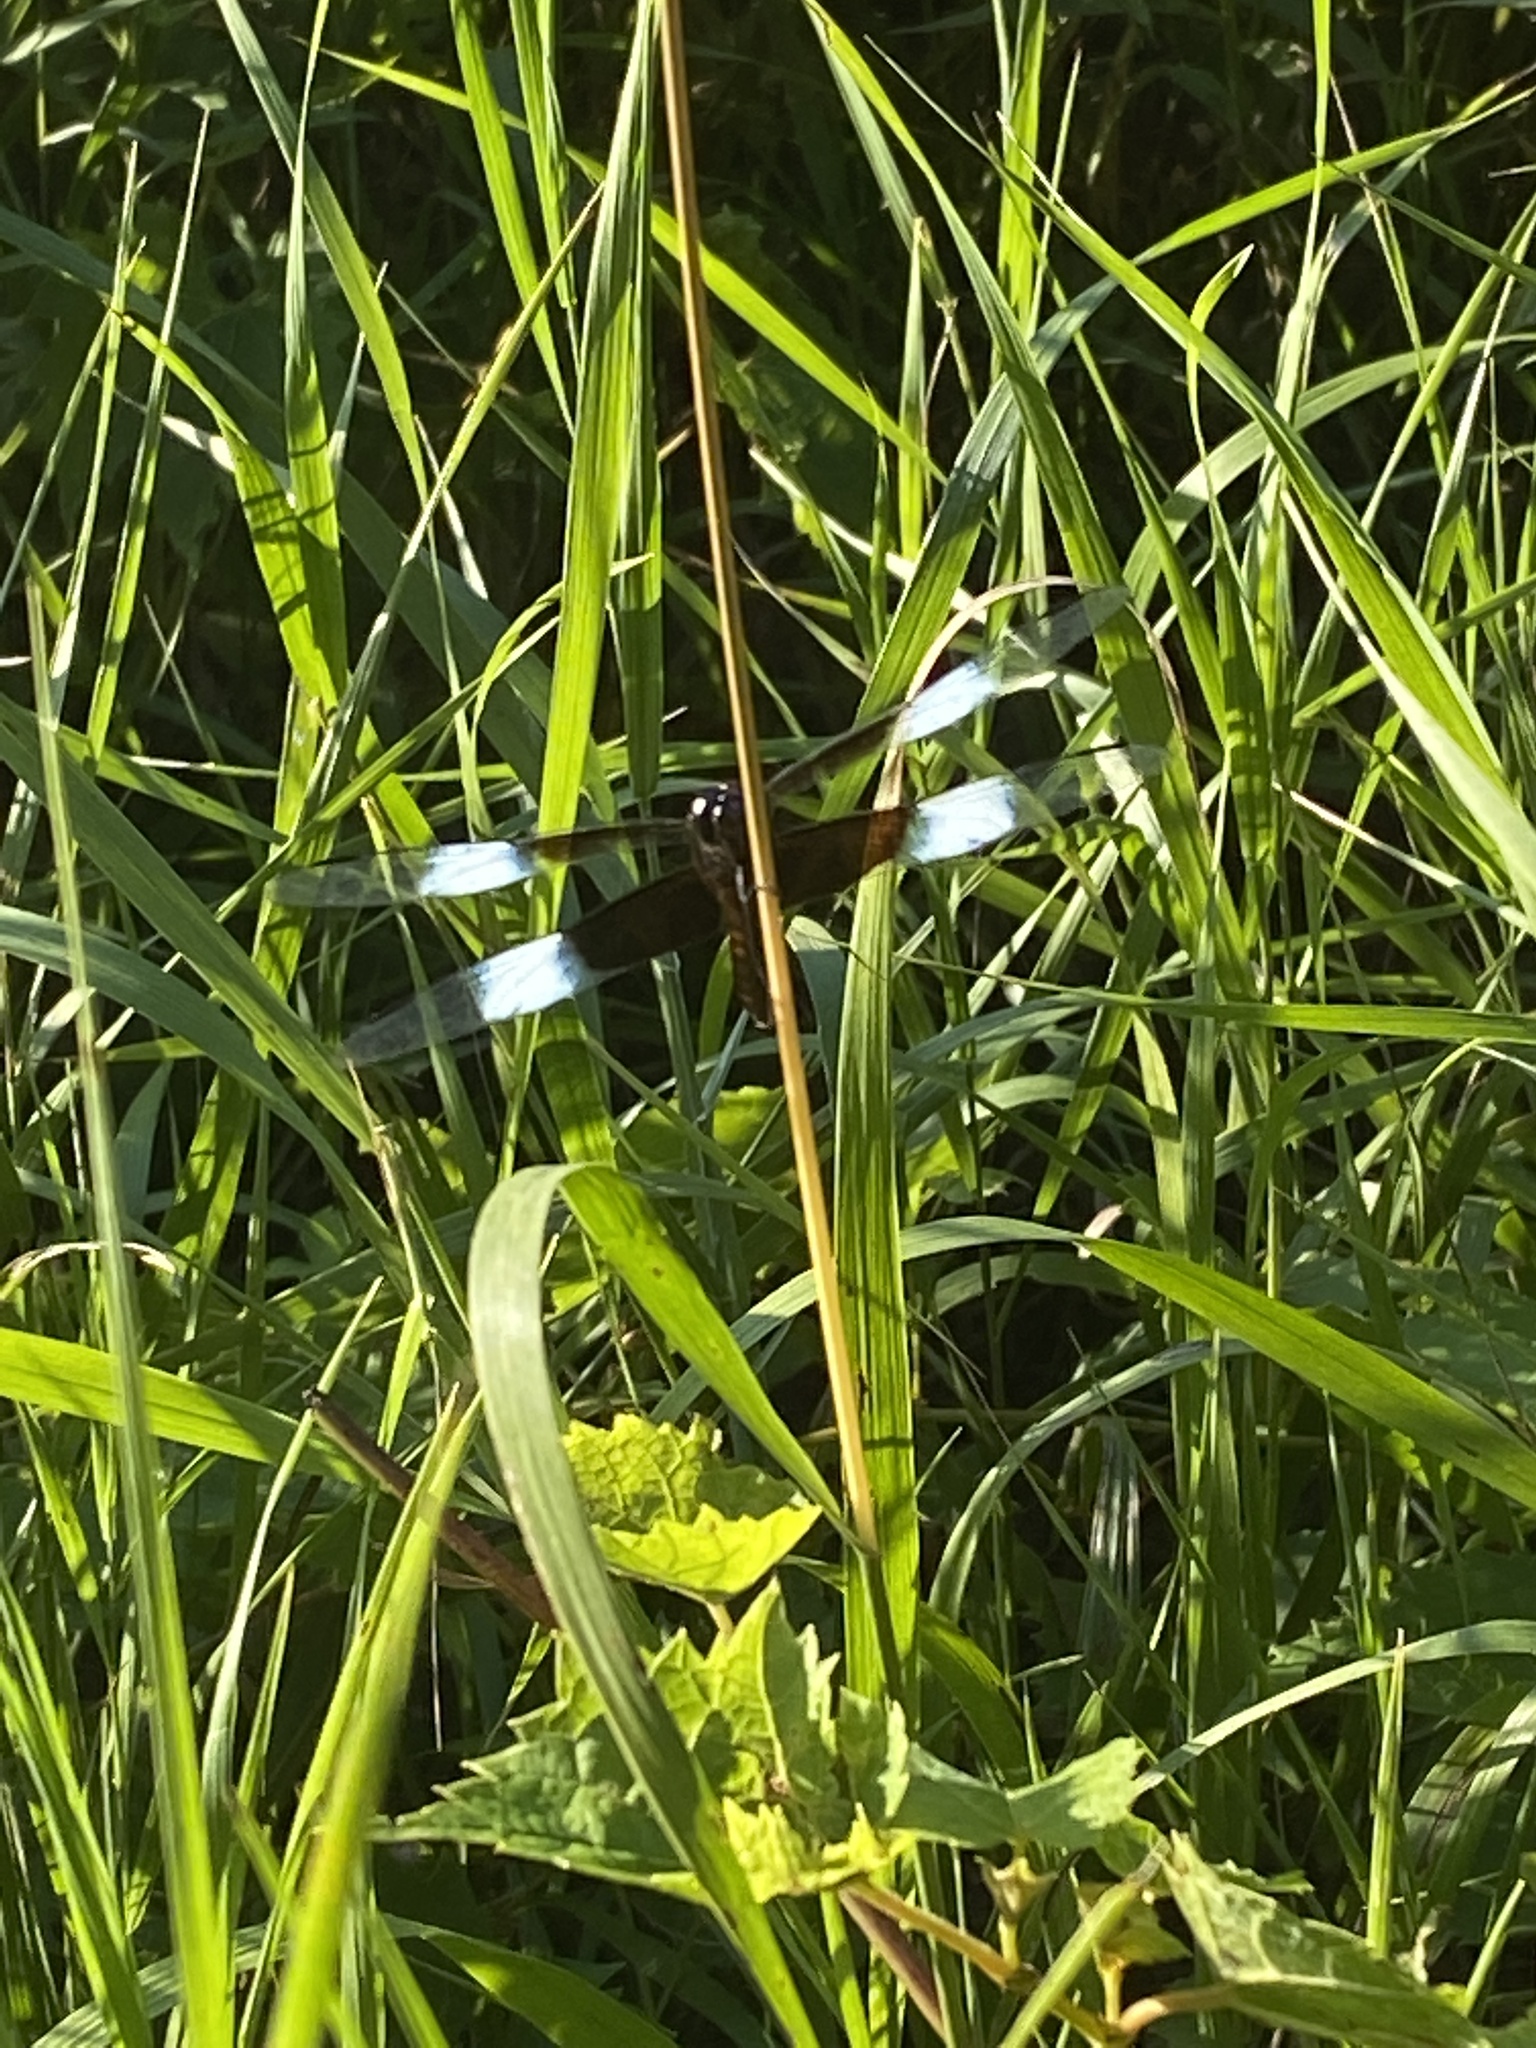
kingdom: Animalia
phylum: Arthropoda
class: Insecta
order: Odonata
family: Libellulidae
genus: Libellula
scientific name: Libellula luctuosa
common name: Widow skimmer
